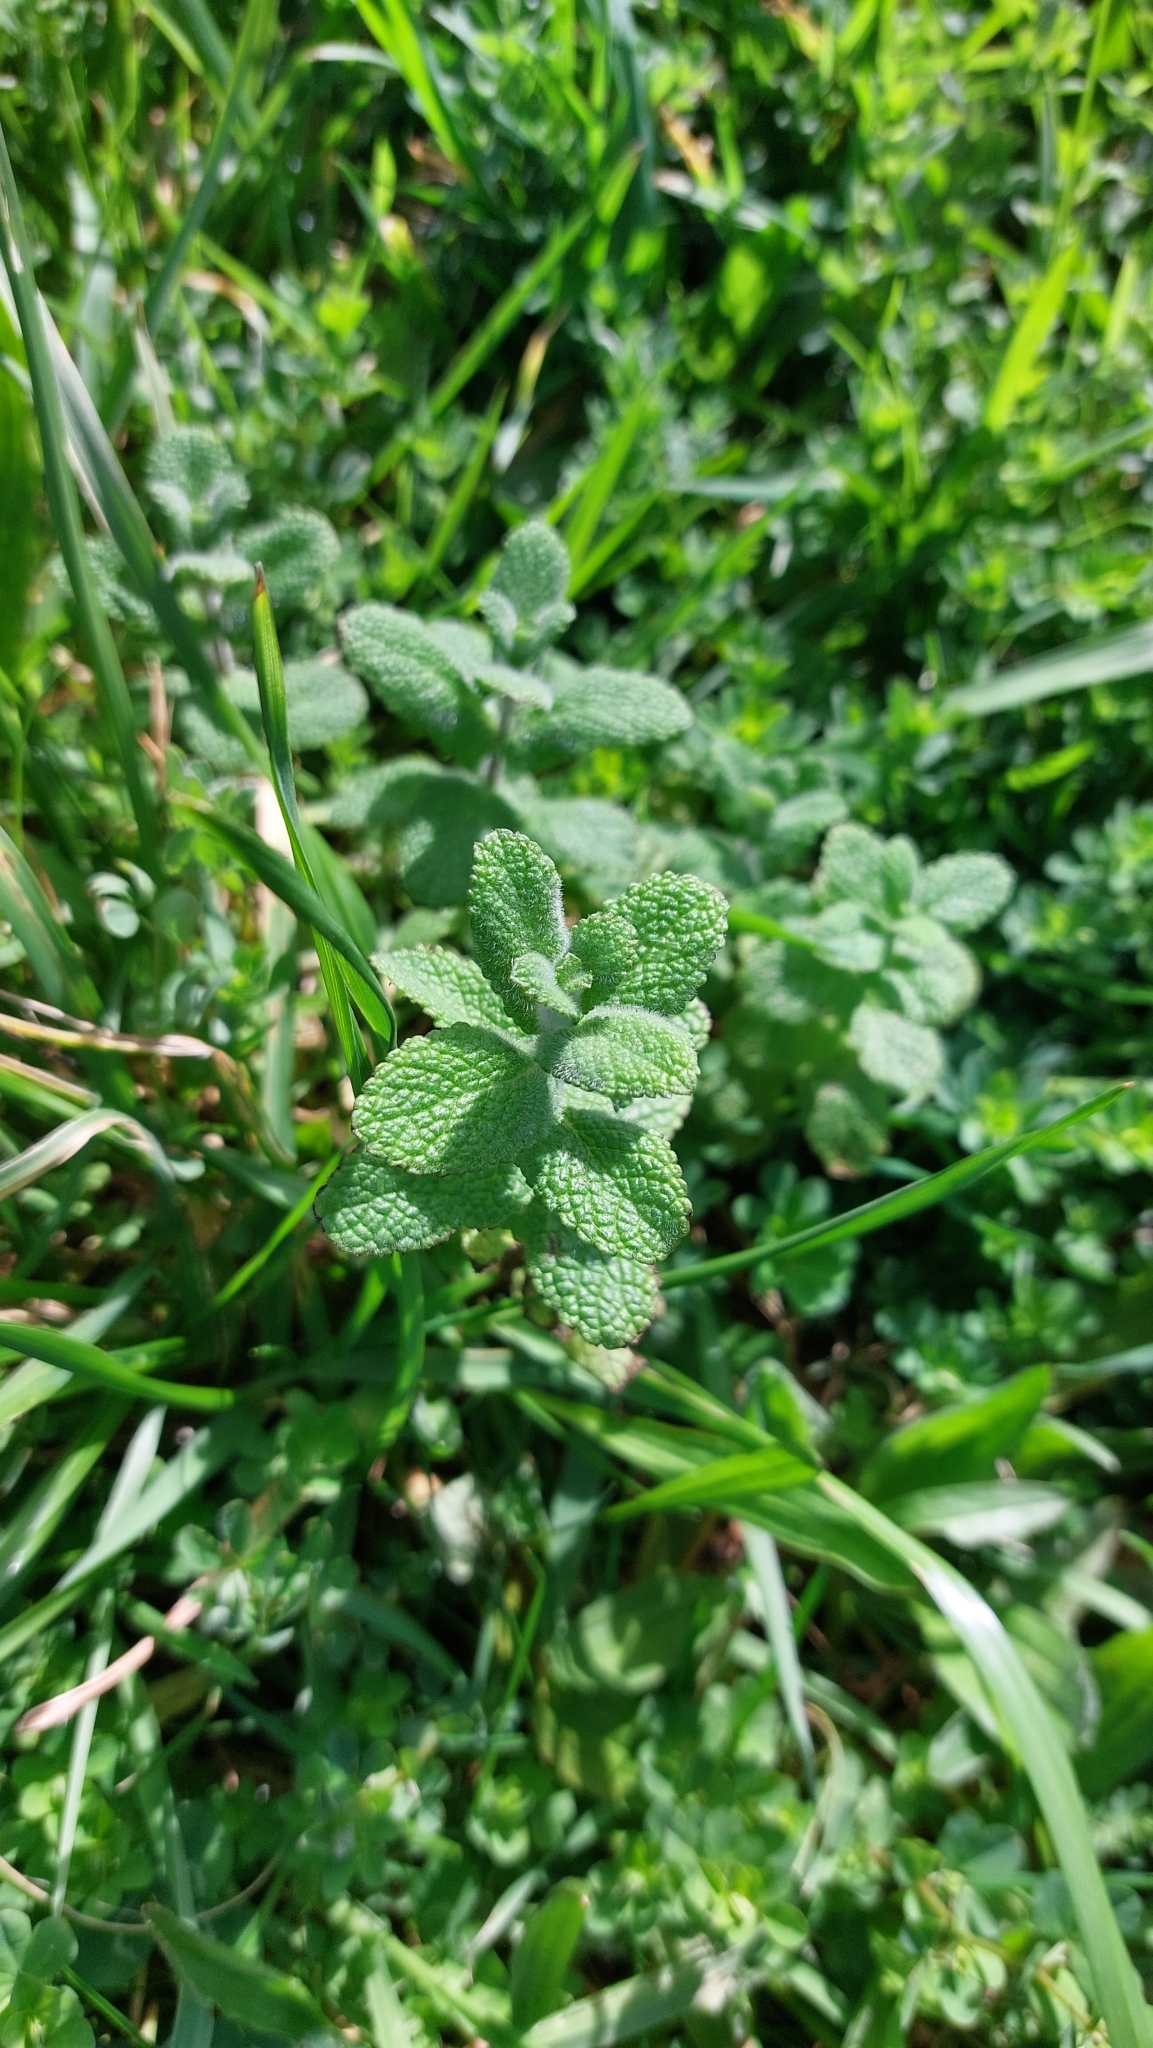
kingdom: Plantae
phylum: Tracheophyta
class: Magnoliopsida
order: Lamiales
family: Lamiaceae
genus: Mentha
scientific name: Mentha suaveolens
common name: Apple mint
